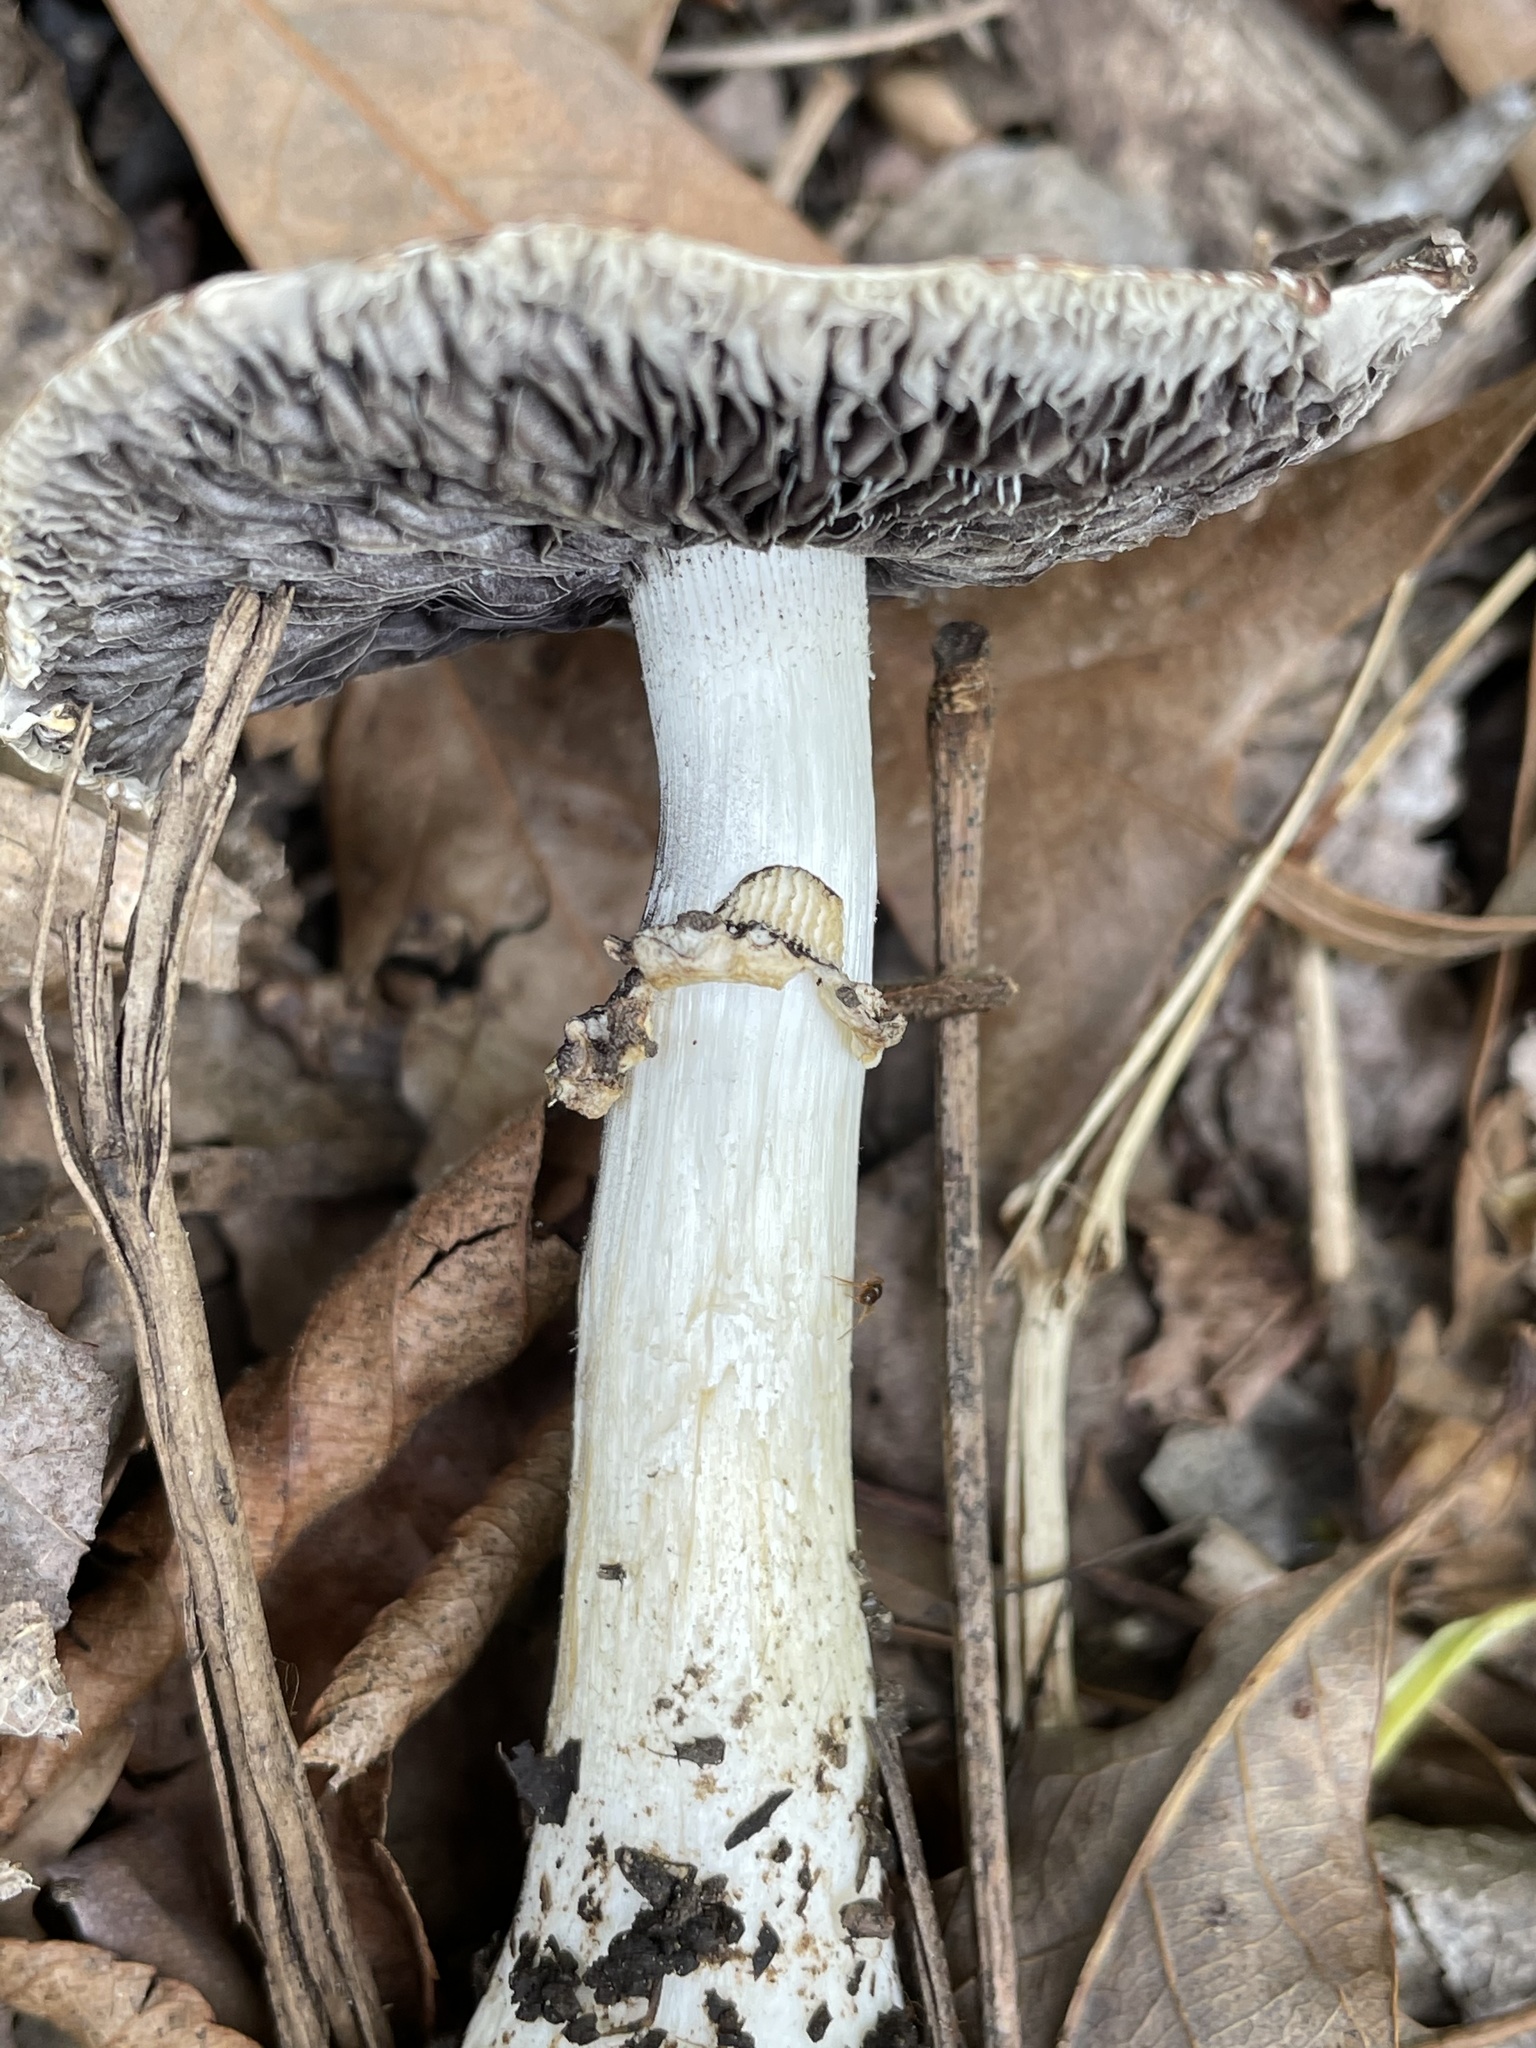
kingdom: Fungi
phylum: Basidiomycota
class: Agaricomycetes
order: Agaricales
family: Strophariaceae
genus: Stropharia
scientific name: Stropharia rugosoannulata
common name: Wine roundhead
